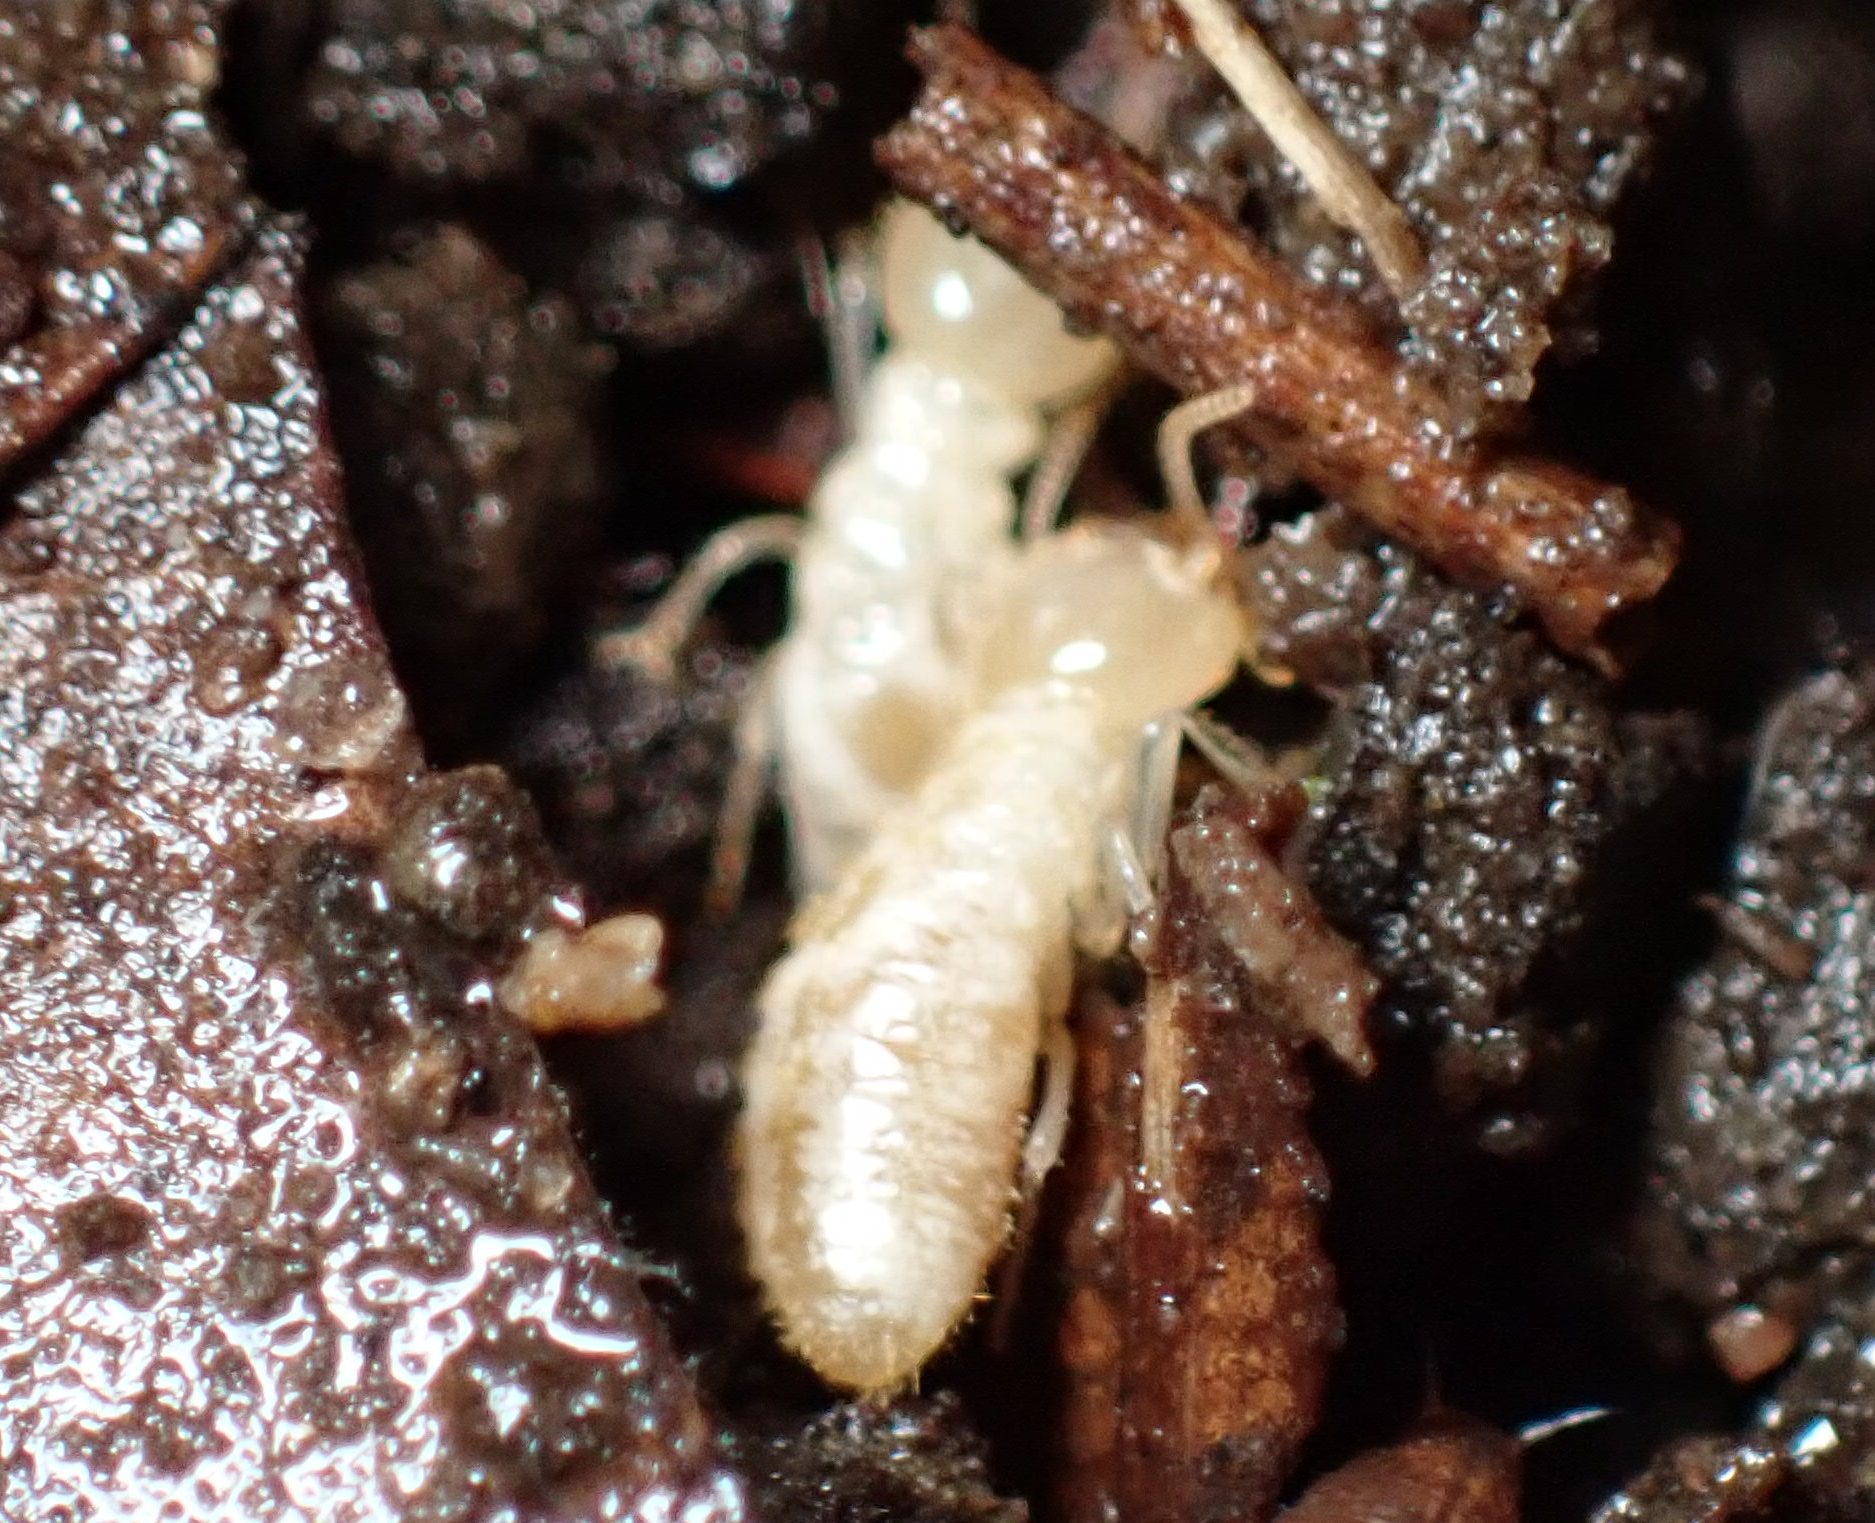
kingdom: Animalia
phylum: Arthropoda
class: Insecta
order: Blattodea
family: Rhinotermitidae
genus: Reticulitermes
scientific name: Reticulitermes flavipes
